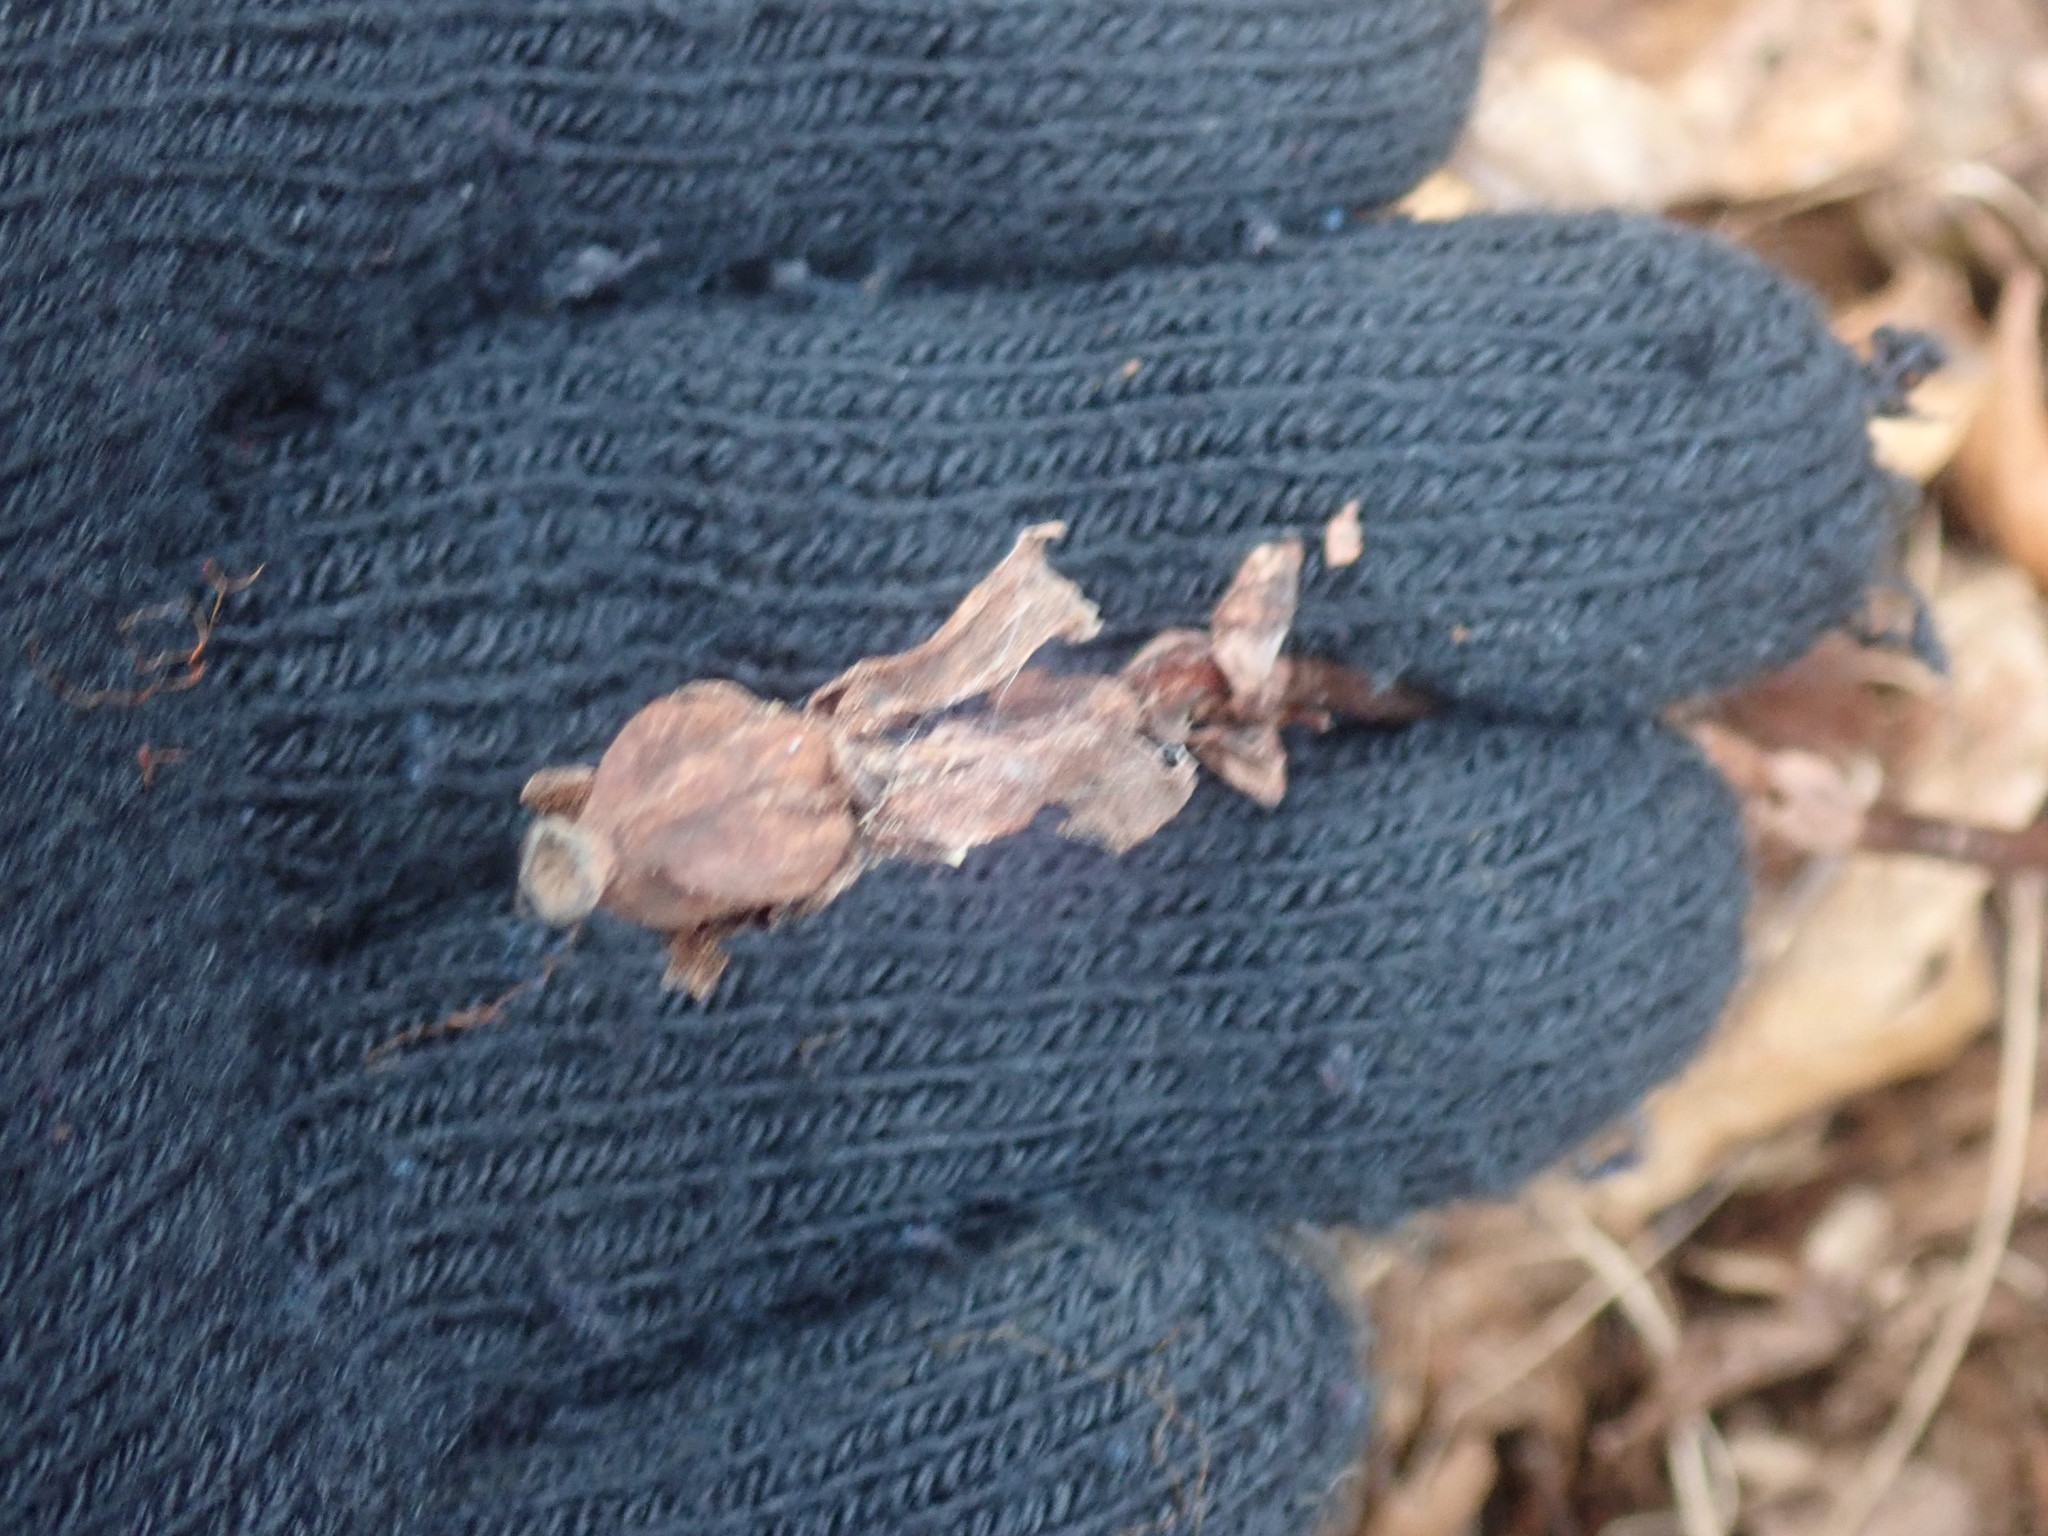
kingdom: Plantae
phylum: Tracheophyta
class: Magnoliopsida
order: Ericales
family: Ericaceae
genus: Monotropa
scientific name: Monotropa uniflora
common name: Convulsion root
